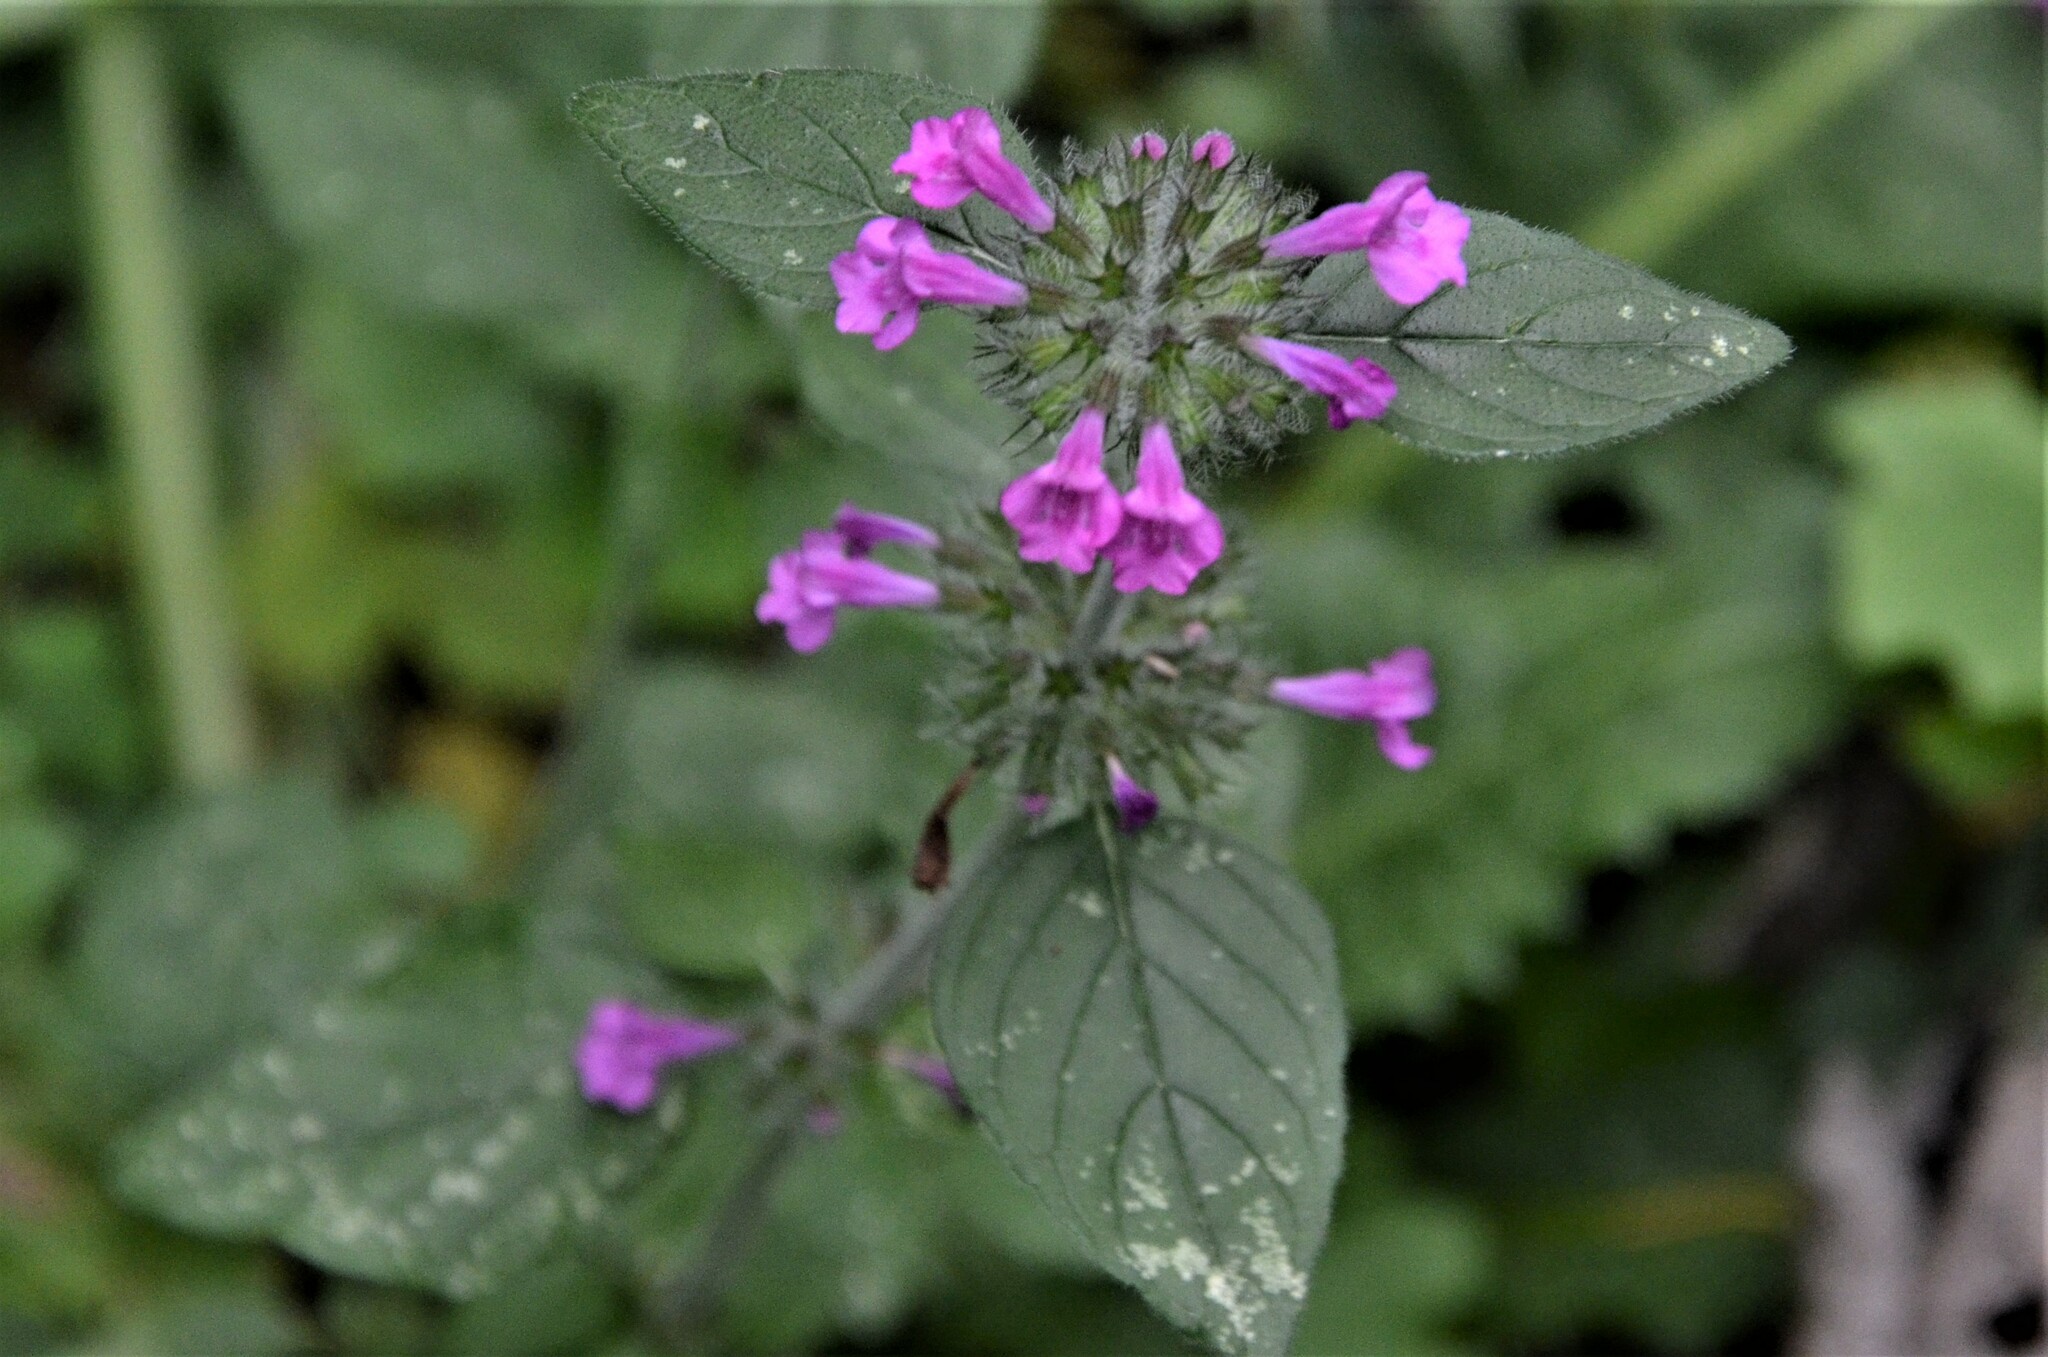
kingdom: Plantae
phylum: Tracheophyta
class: Magnoliopsida
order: Lamiales
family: Lamiaceae
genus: Clinopodium
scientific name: Clinopodium vulgare
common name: Wild basil
